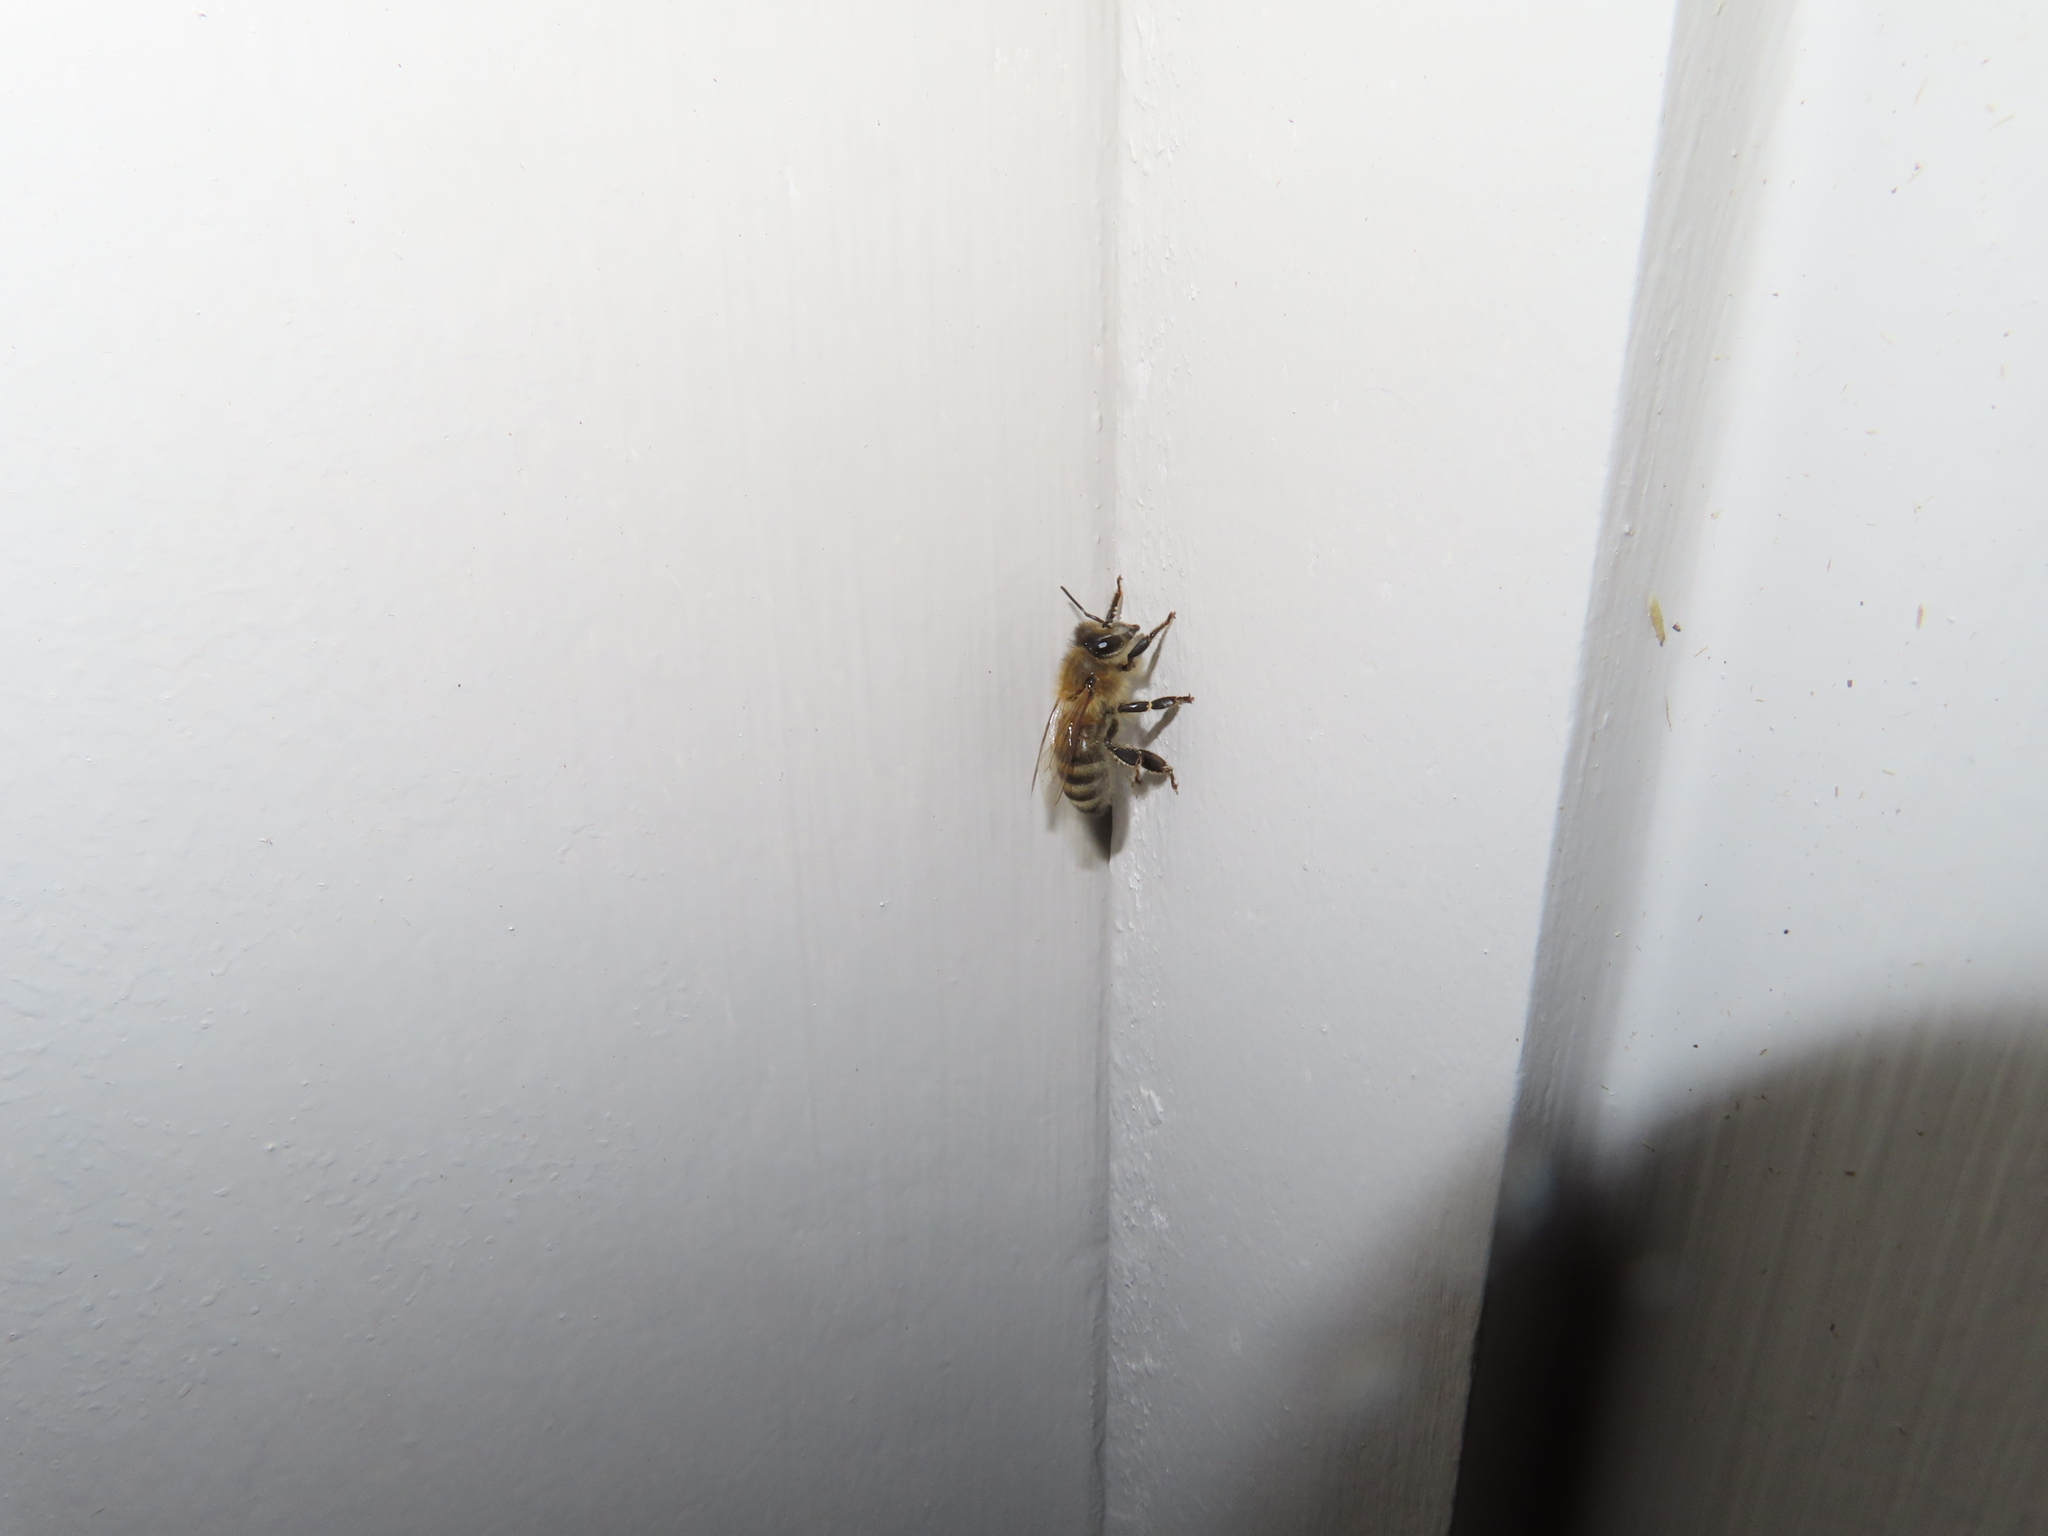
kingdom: Animalia
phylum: Arthropoda
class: Insecta
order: Hymenoptera
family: Apidae
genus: Apis
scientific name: Apis mellifera
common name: Honey bee
